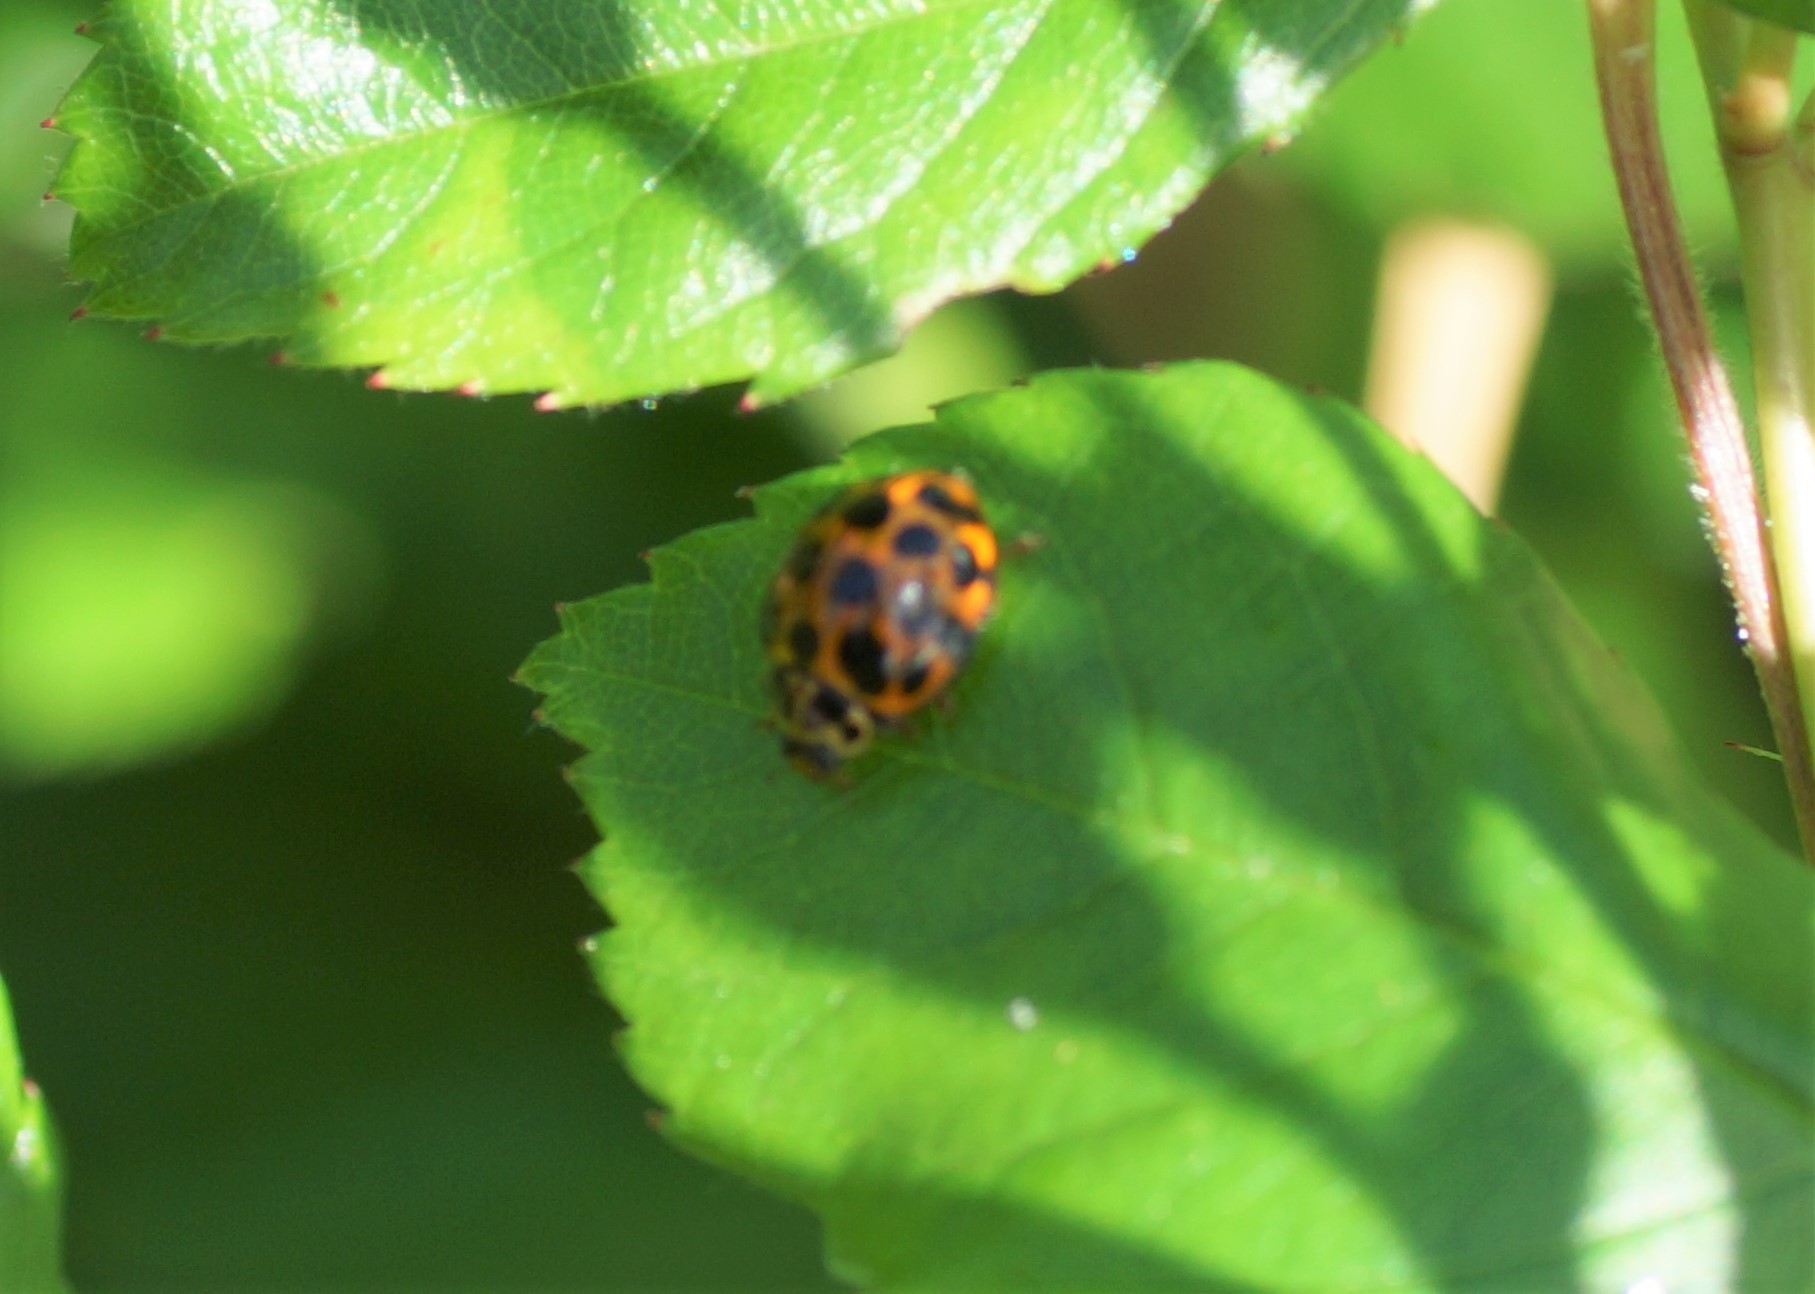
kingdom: Animalia
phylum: Arthropoda
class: Insecta
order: Coleoptera
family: Coccinellidae
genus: Harmonia
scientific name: Harmonia conformis
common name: Common spotted ladybird beetle
